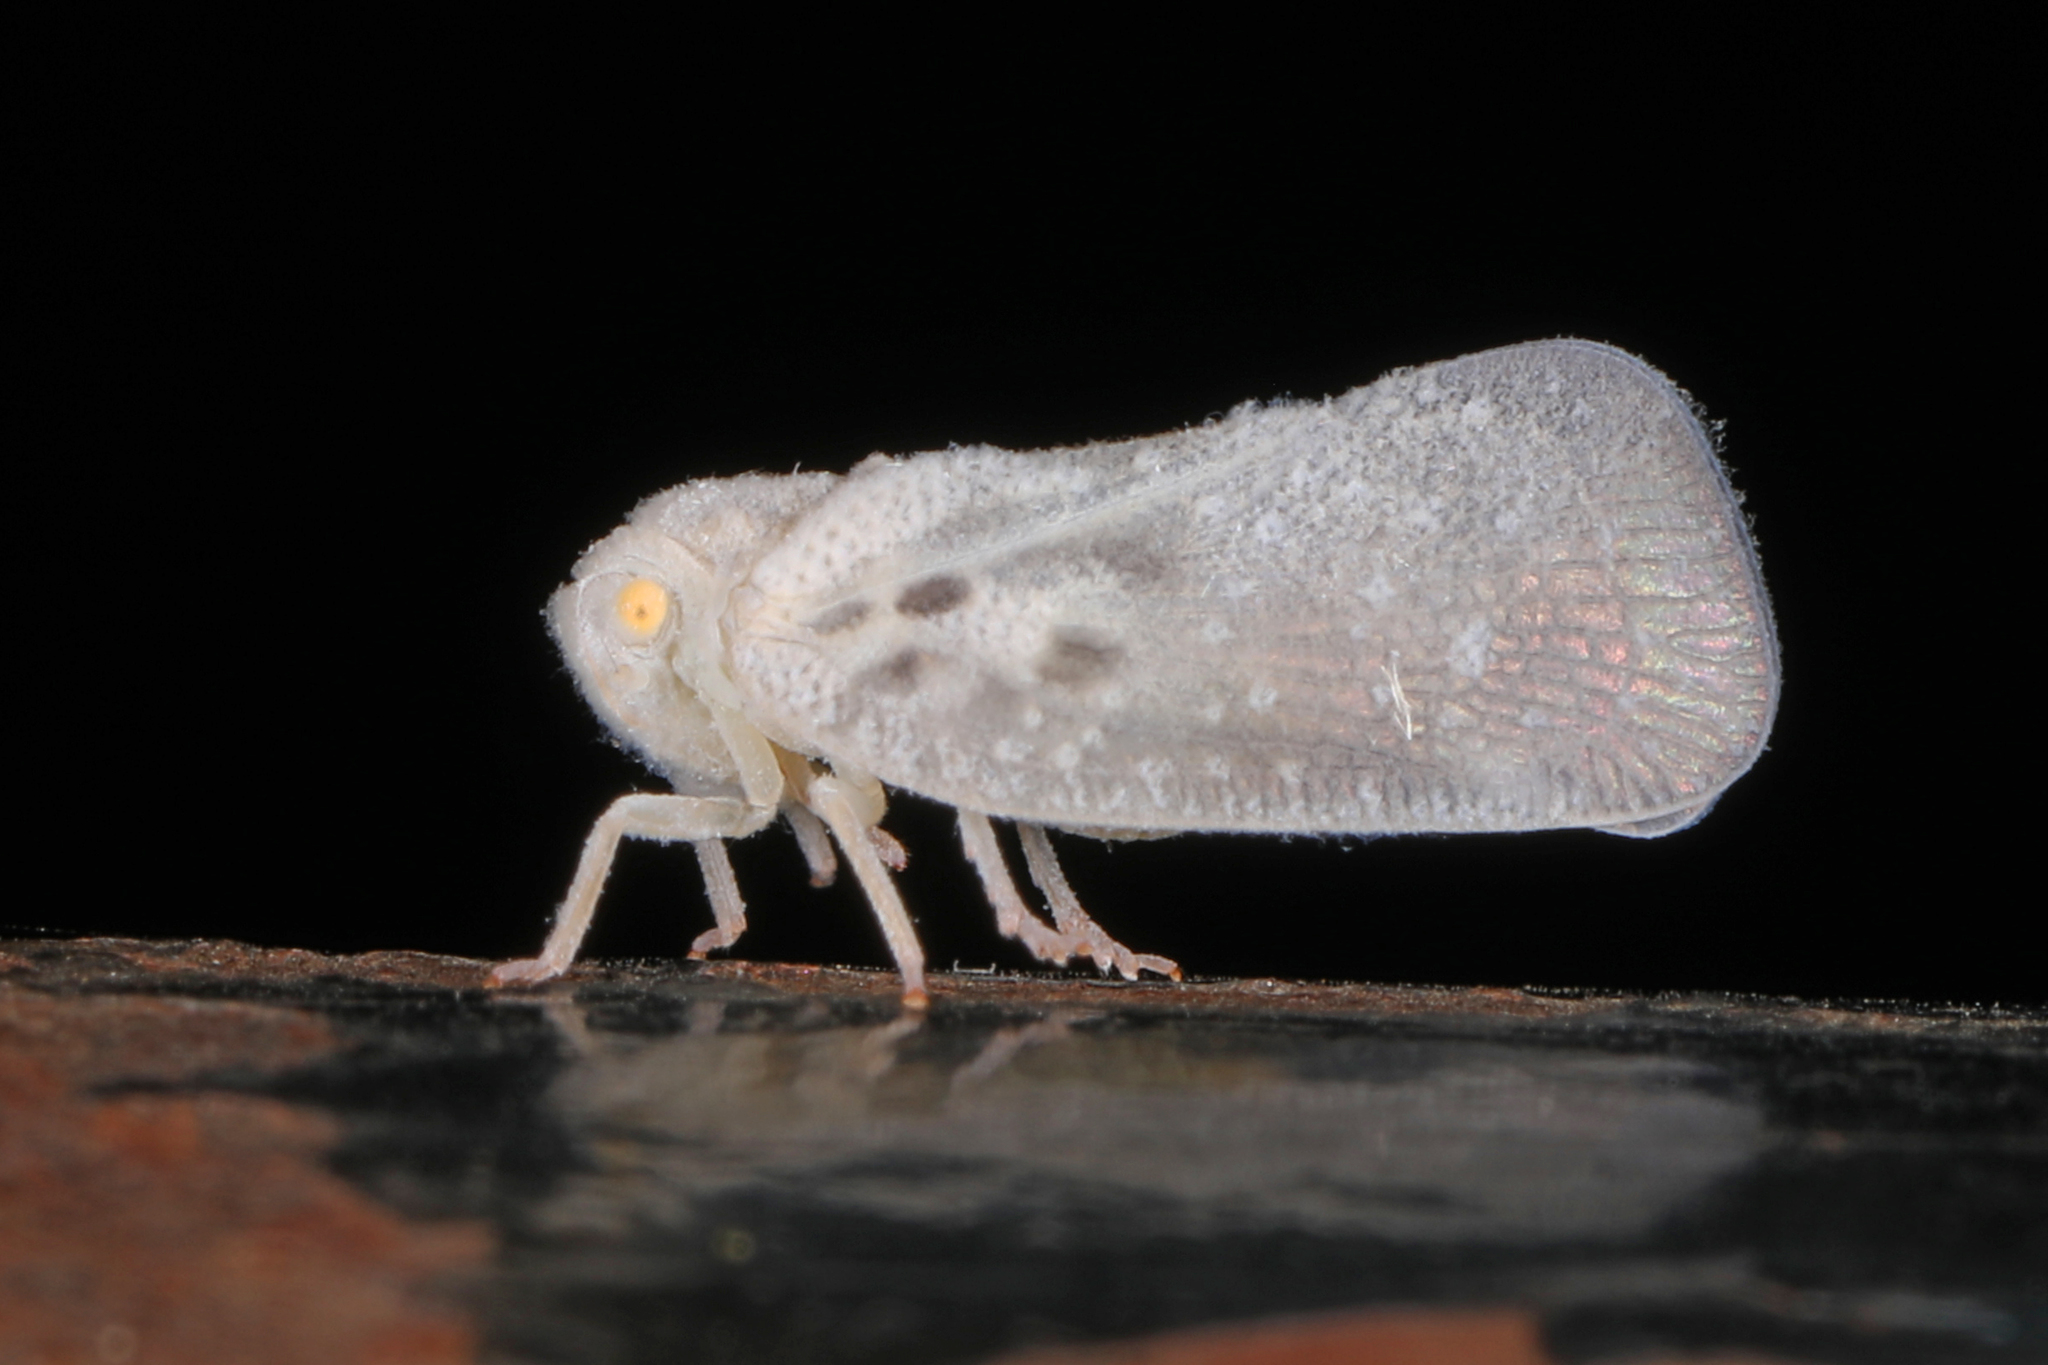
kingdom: Animalia
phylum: Arthropoda
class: Insecta
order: Hemiptera
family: Flatidae
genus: Metcalfa
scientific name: Metcalfa pruinosa
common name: Citrus flatid planthopper
